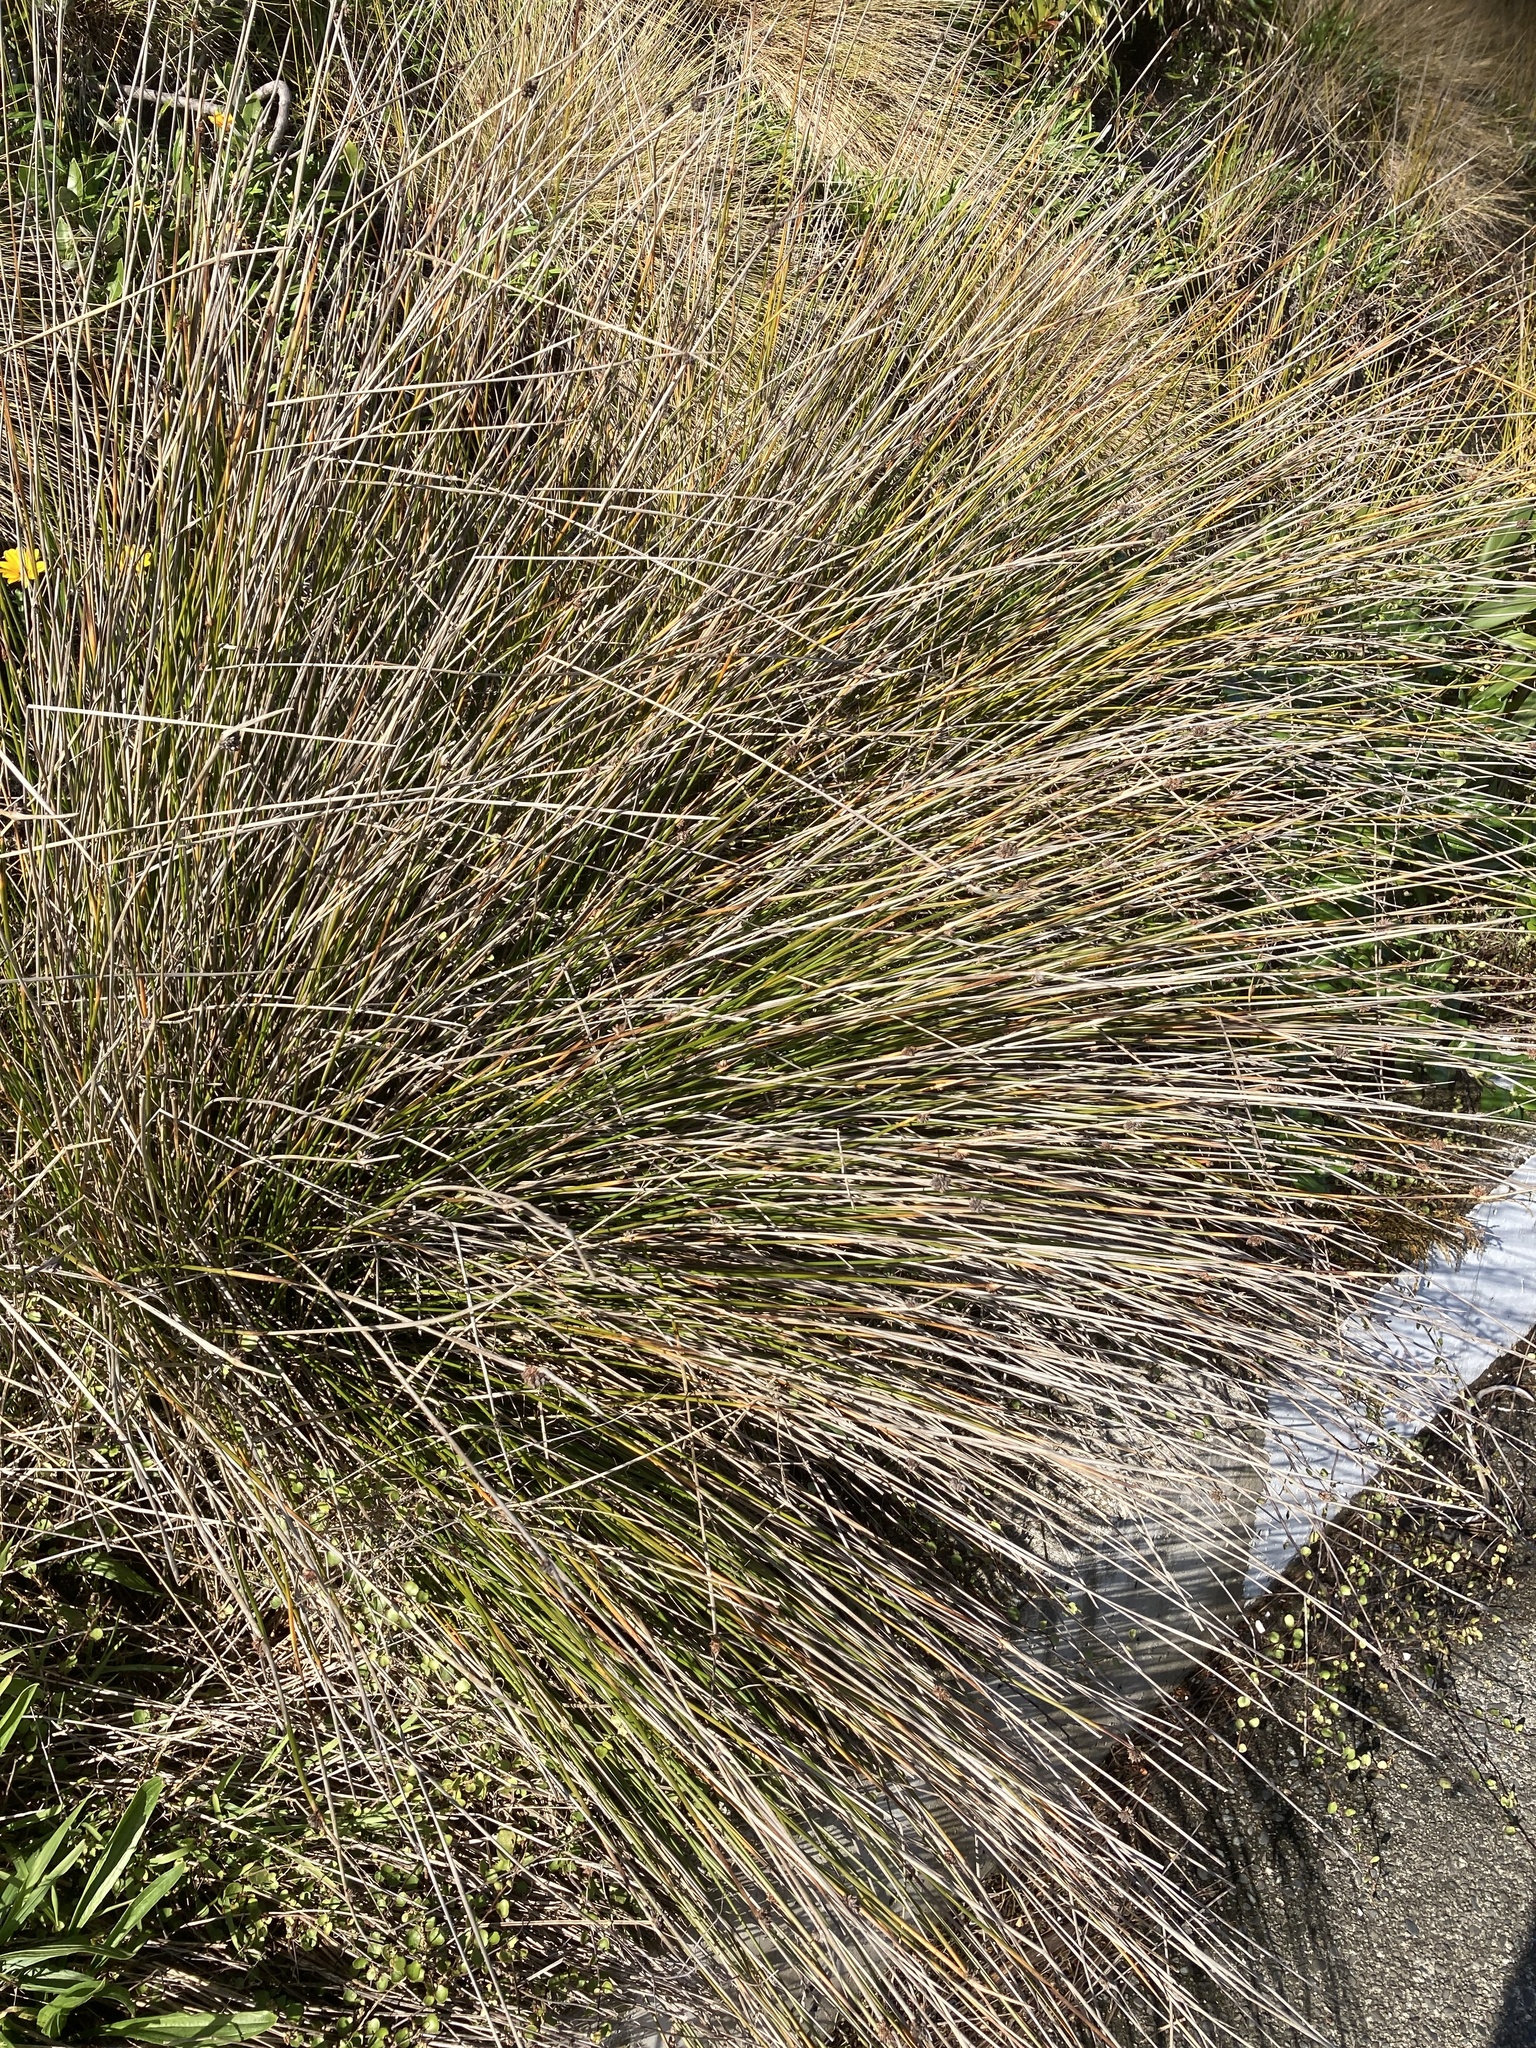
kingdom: Plantae
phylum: Tracheophyta
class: Liliopsida
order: Poales
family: Cyperaceae
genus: Ficinia
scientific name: Ficinia nodosa
